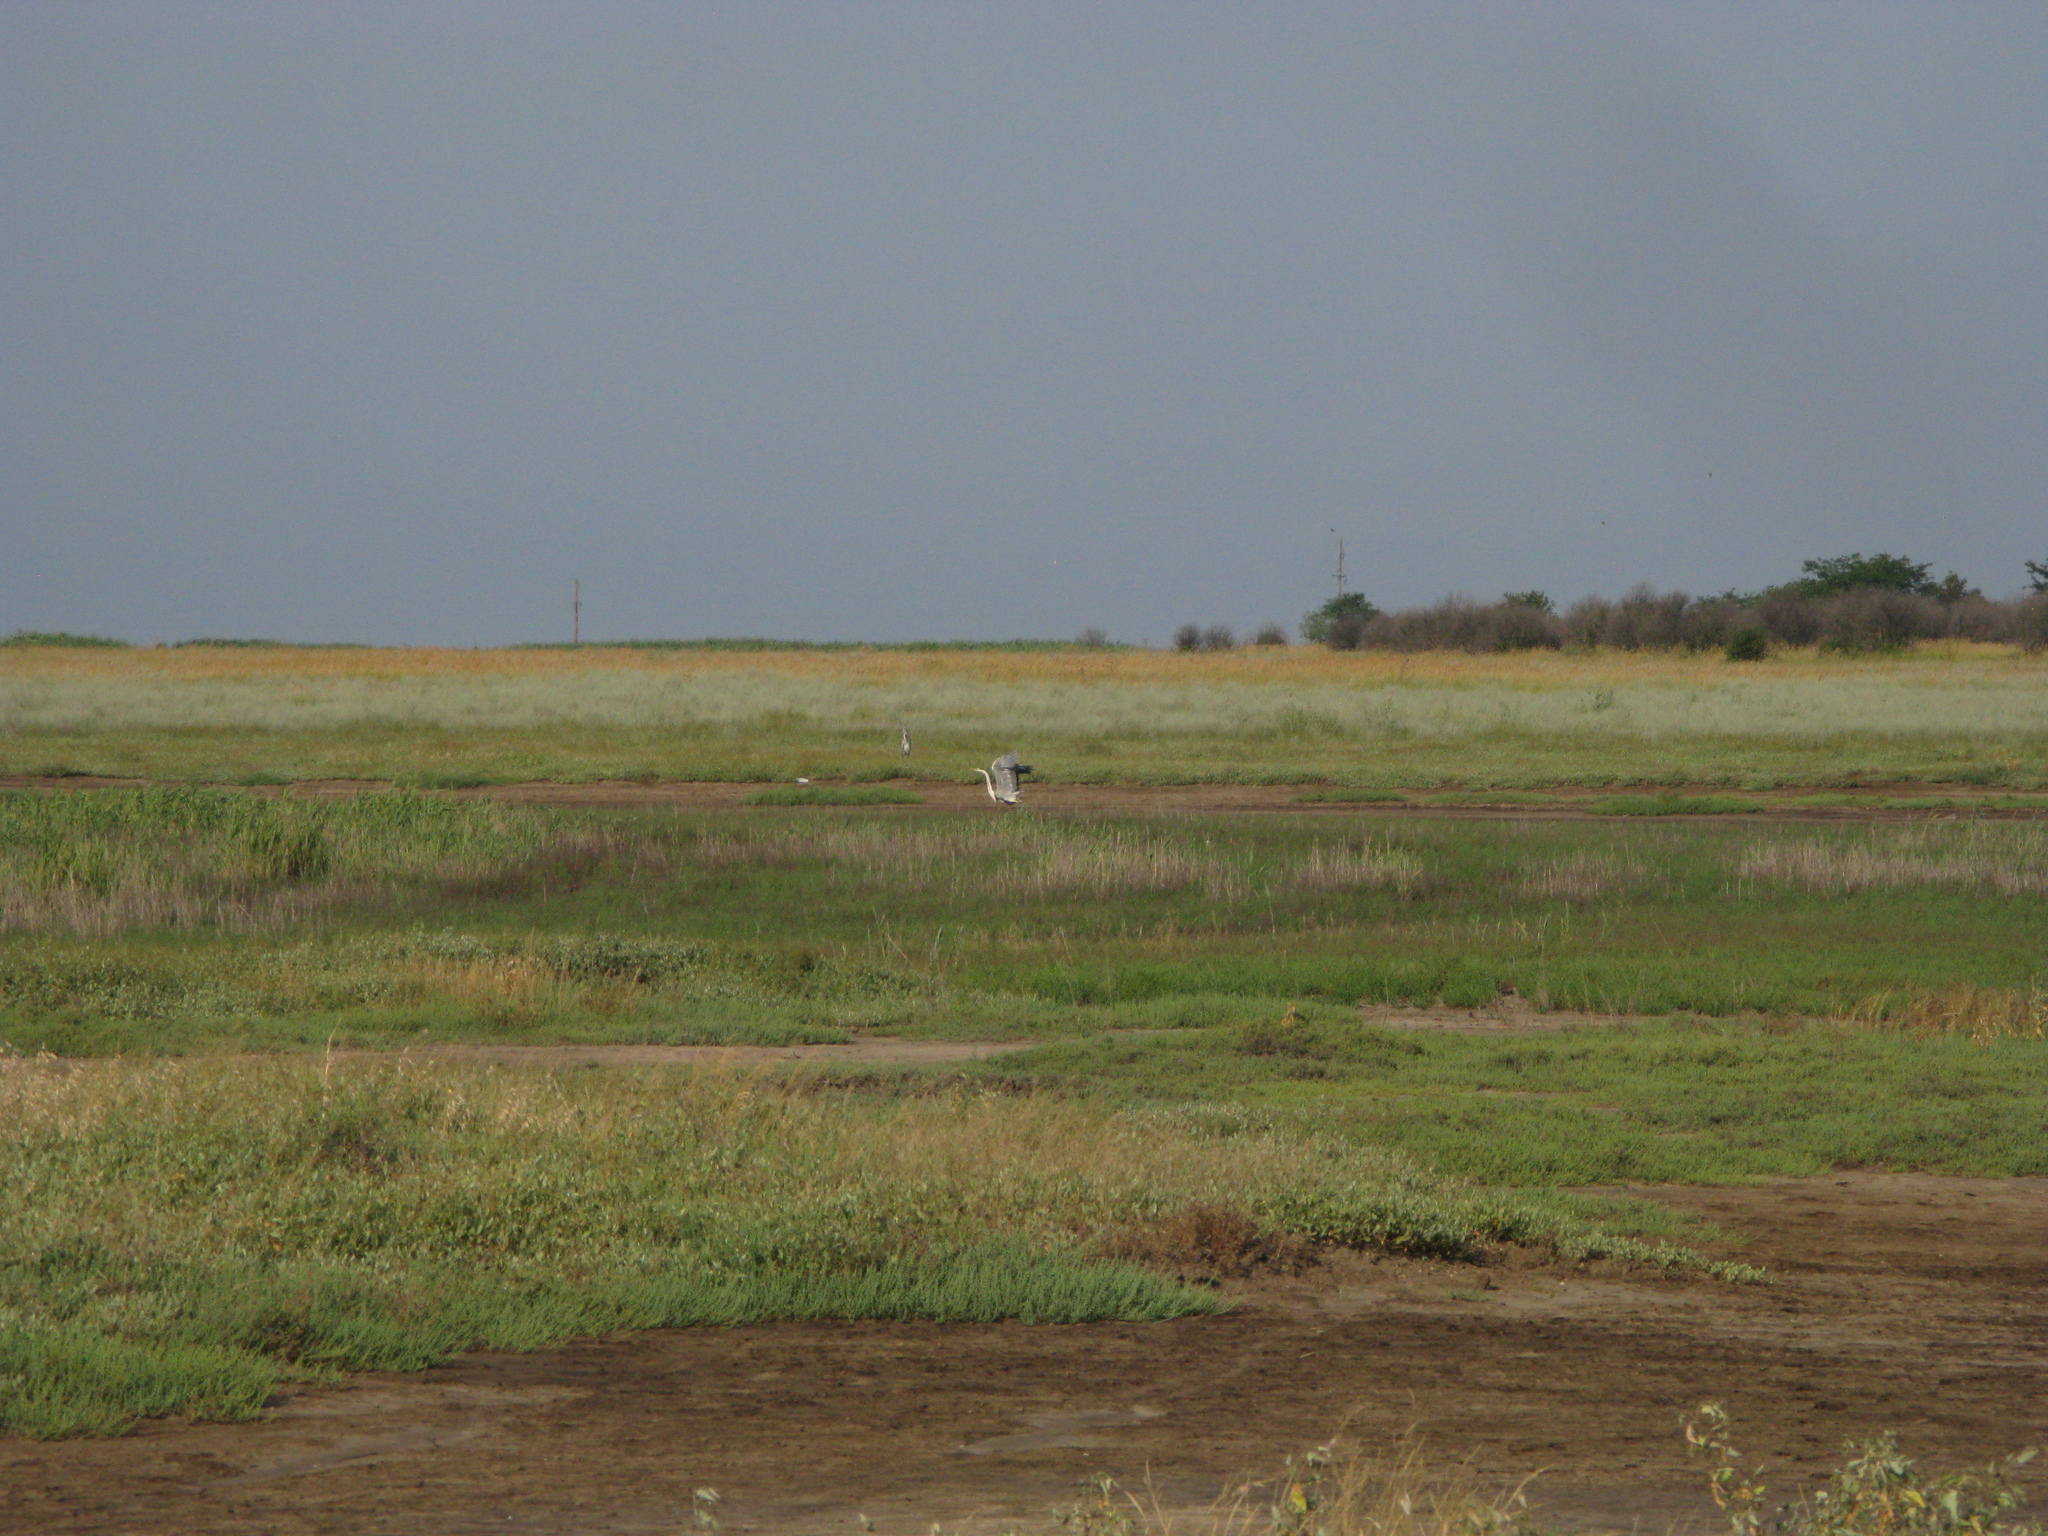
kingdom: Animalia
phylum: Chordata
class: Aves
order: Pelecaniformes
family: Ardeidae
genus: Ardea
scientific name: Ardea cinerea
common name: Grey heron
